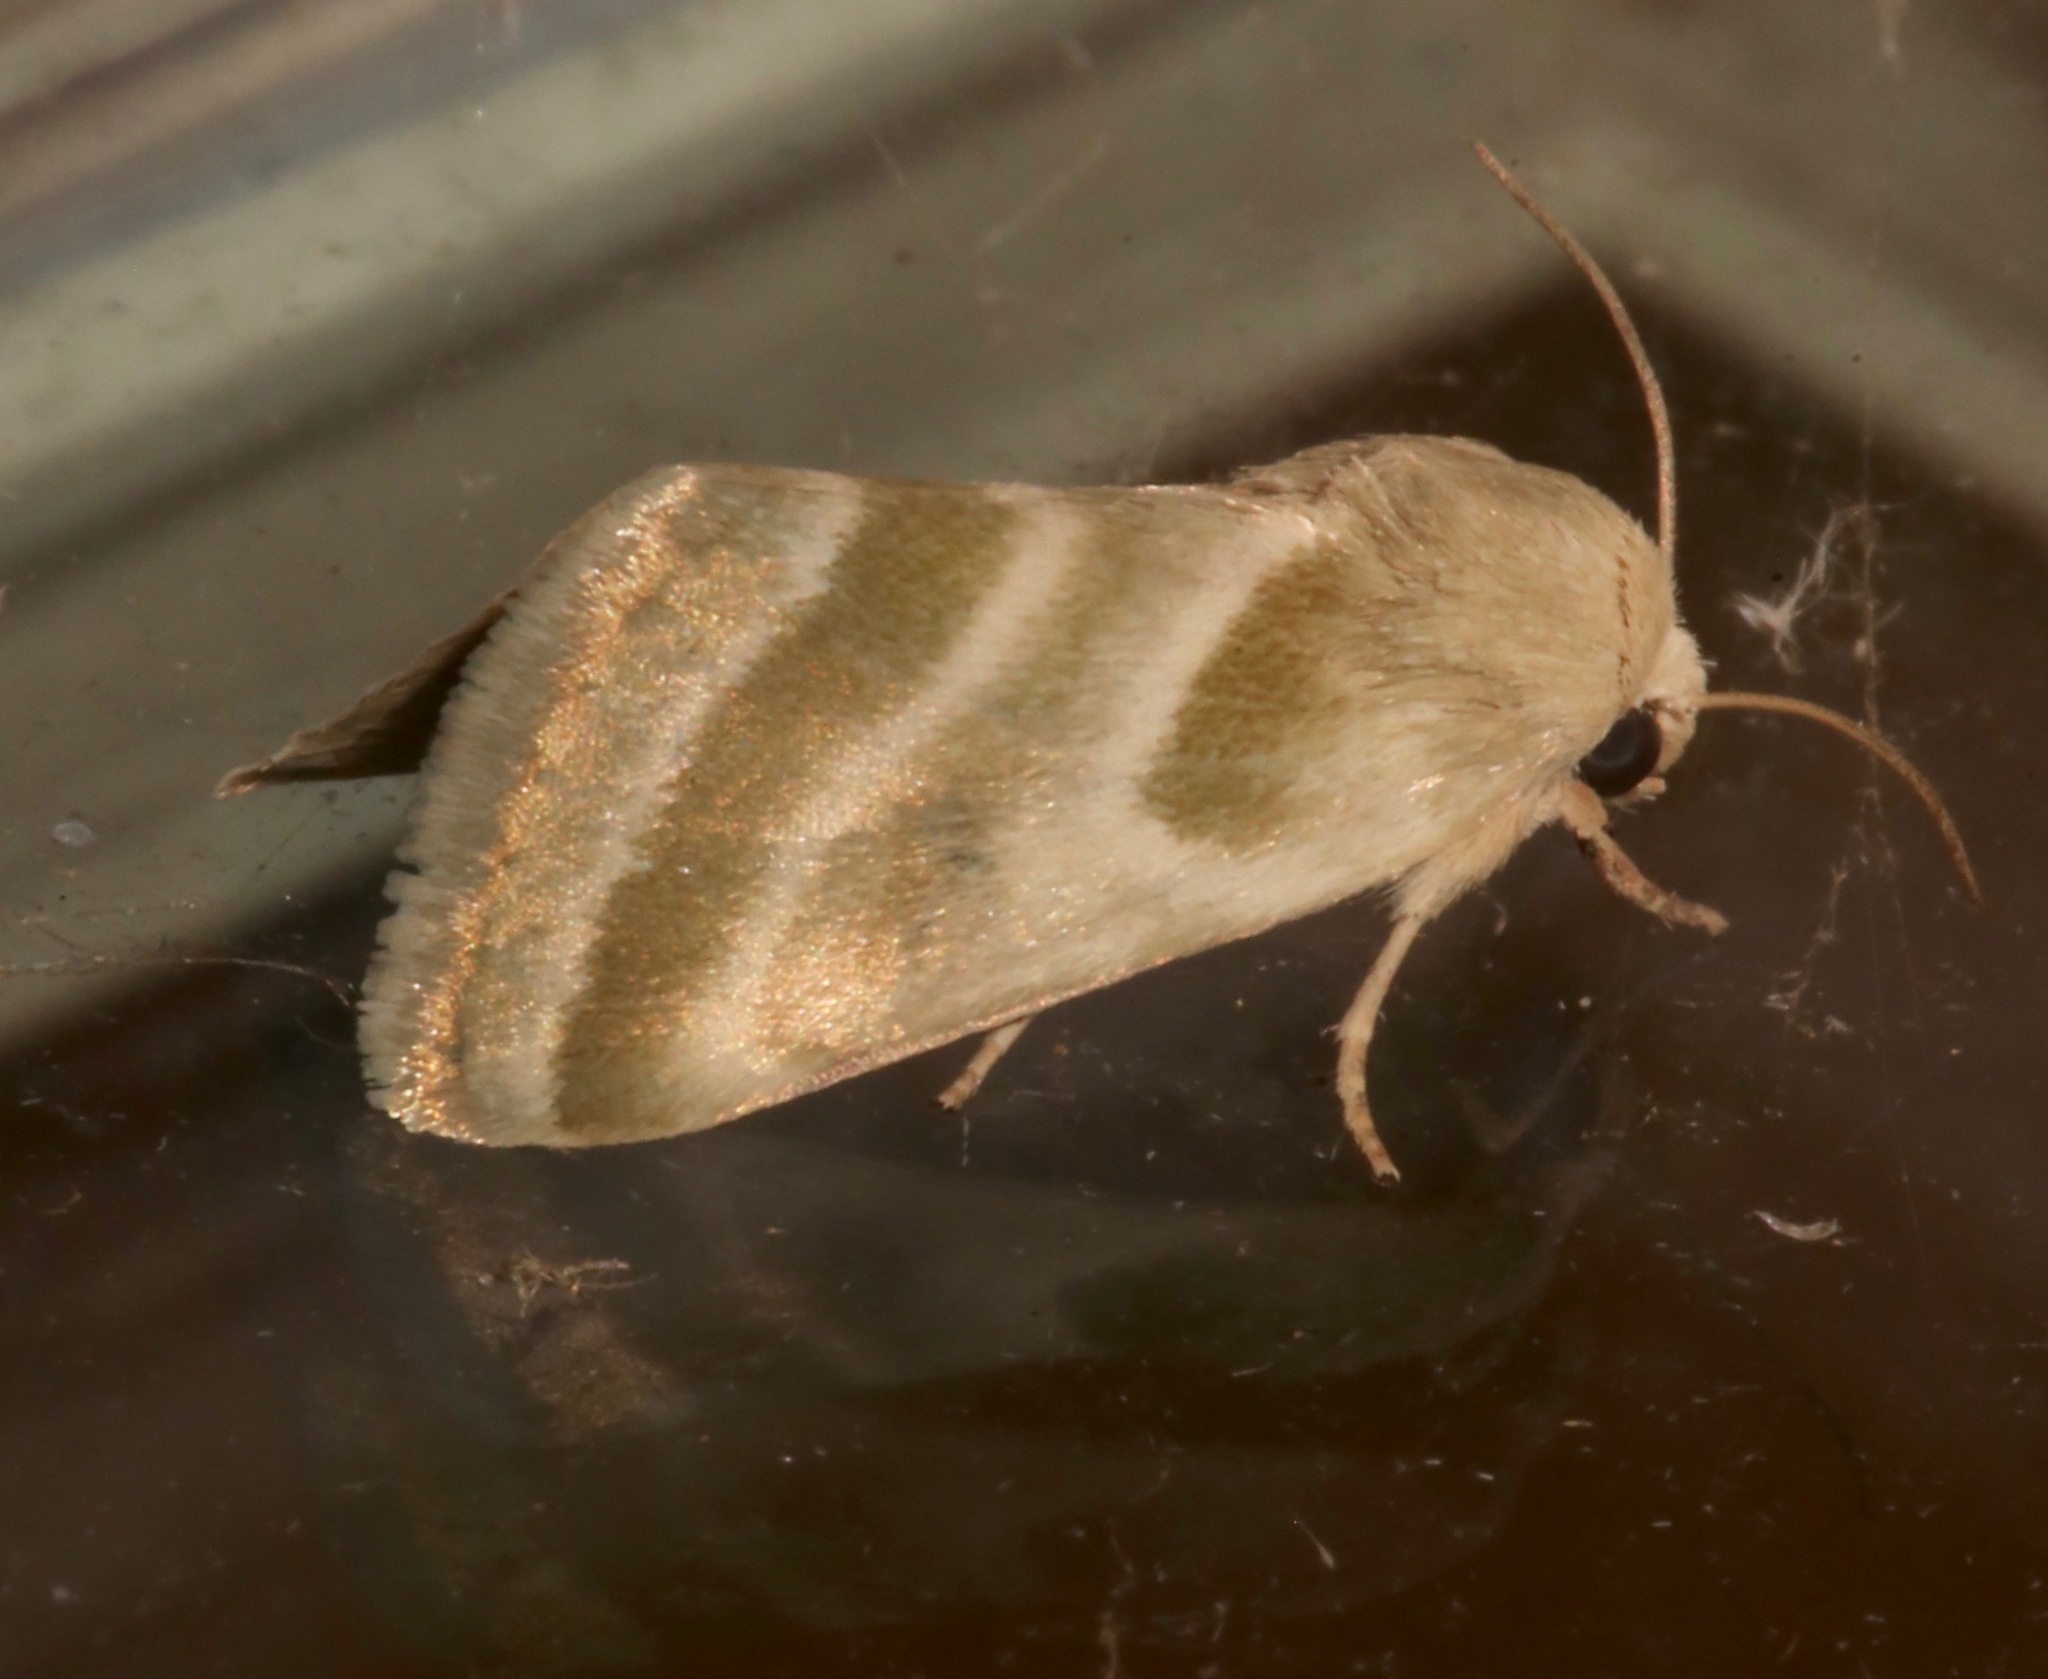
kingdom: Animalia
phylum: Arthropoda
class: Insecta
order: Lepidoptera
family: Noctuidae
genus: Schinia
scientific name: Schinia trifascia
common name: Three-lined flower moth
